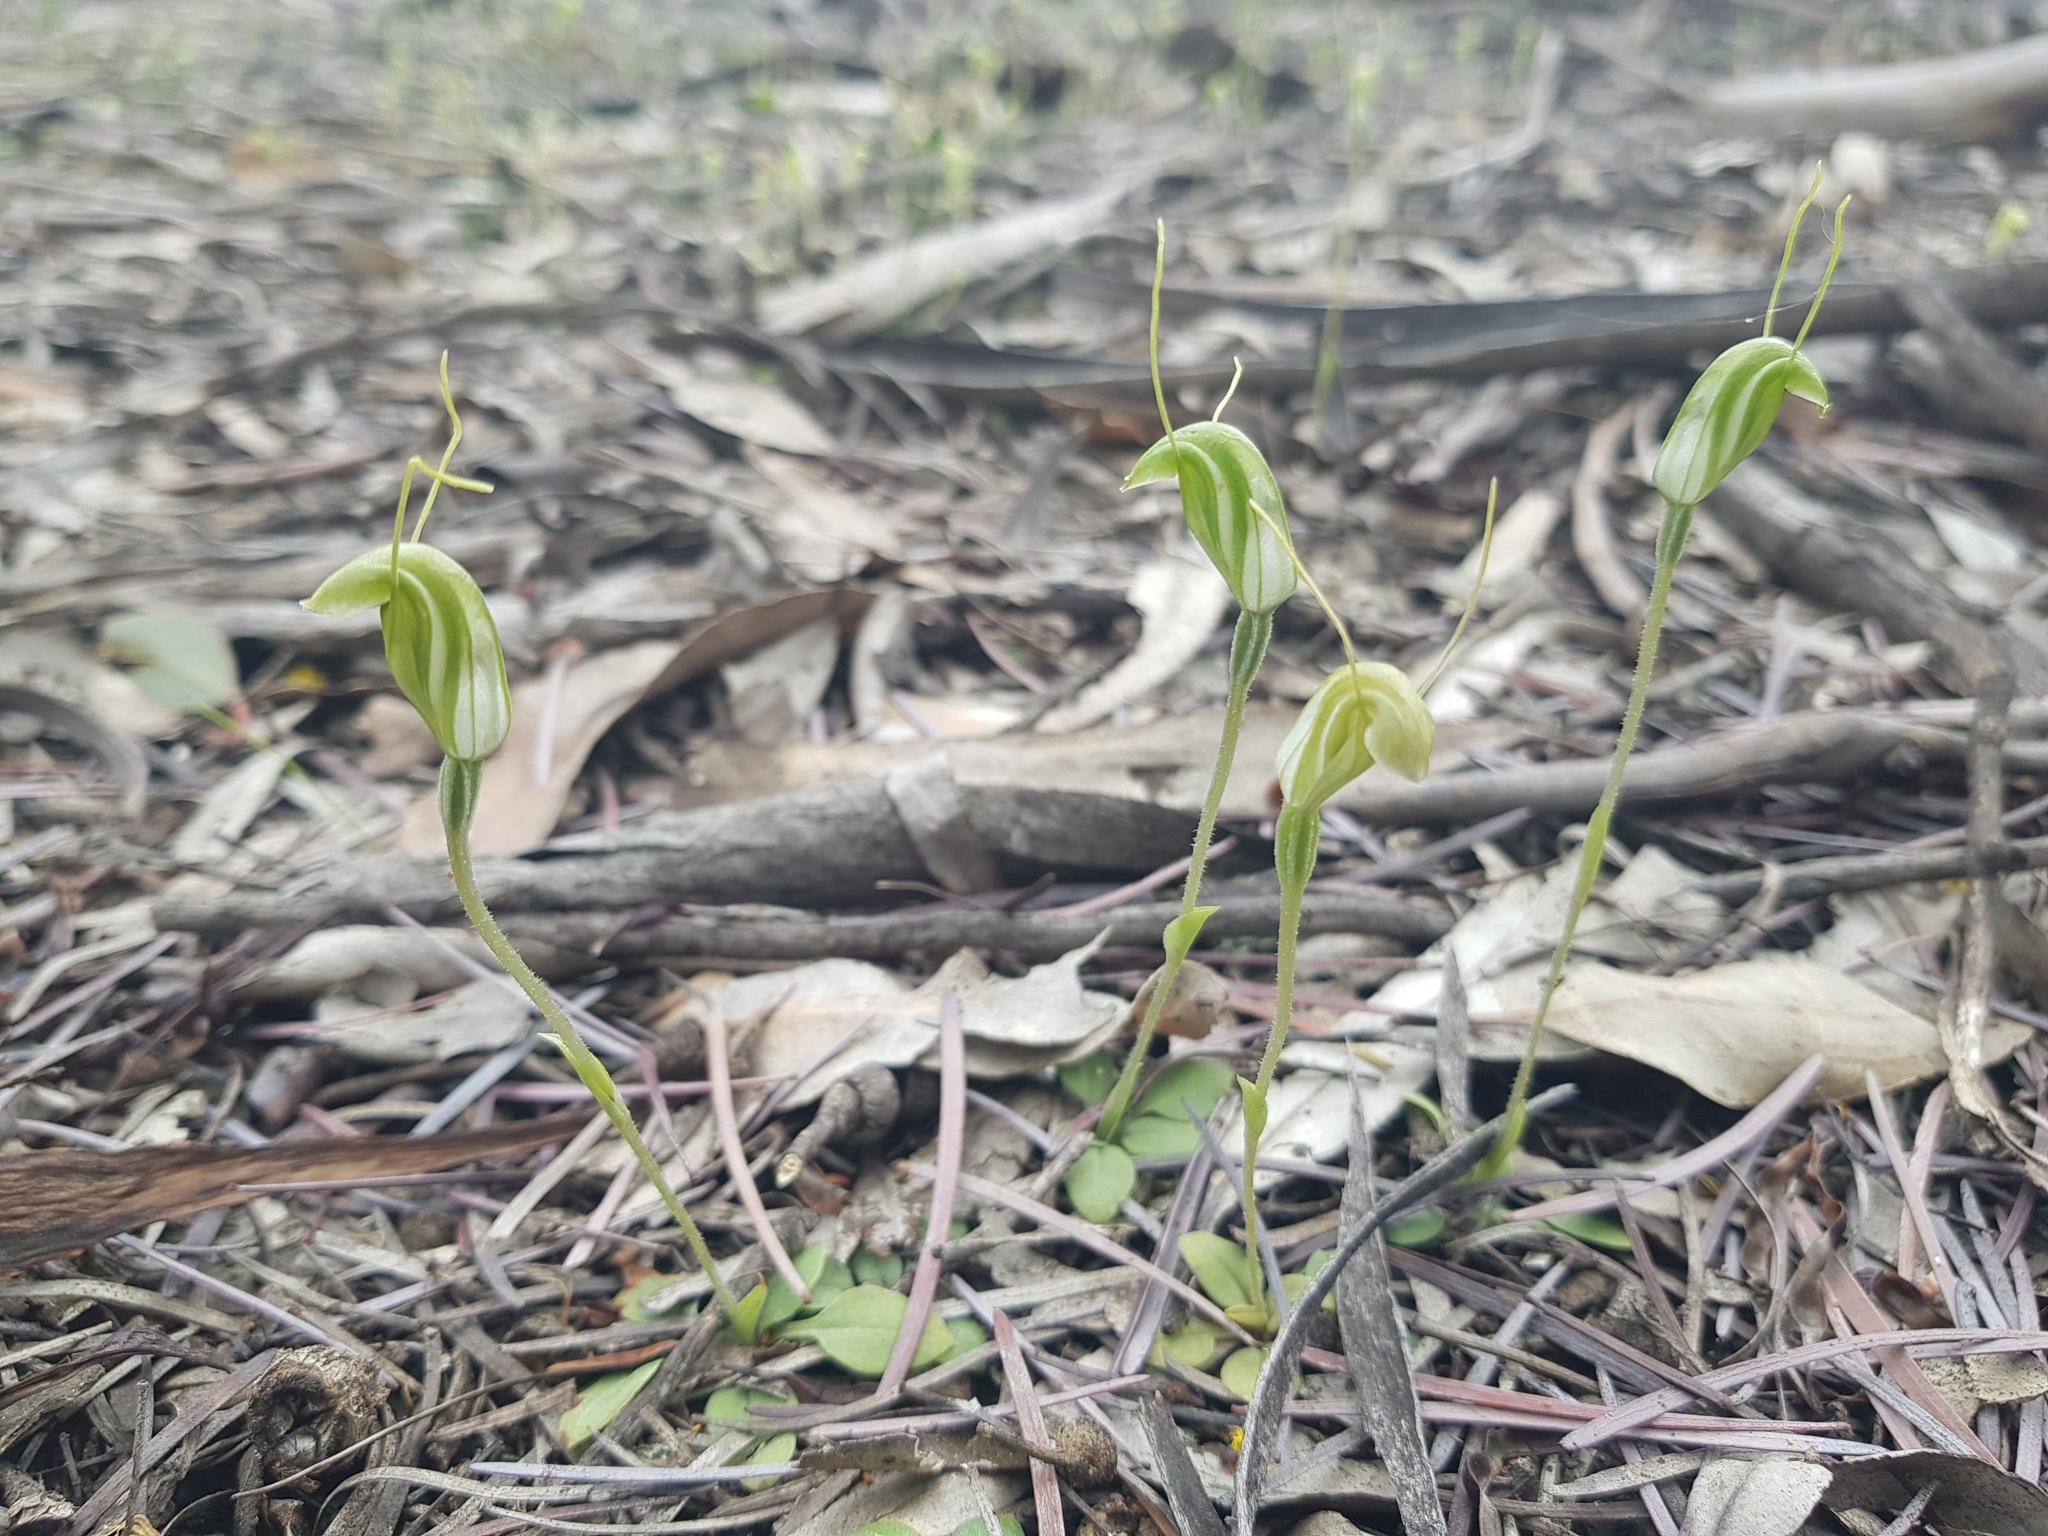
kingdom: Plantae
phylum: Tracheophyta
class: Liliopsida
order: Asparagales
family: Orchidaceae
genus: Pterostylis
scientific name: Pterostylis nana
